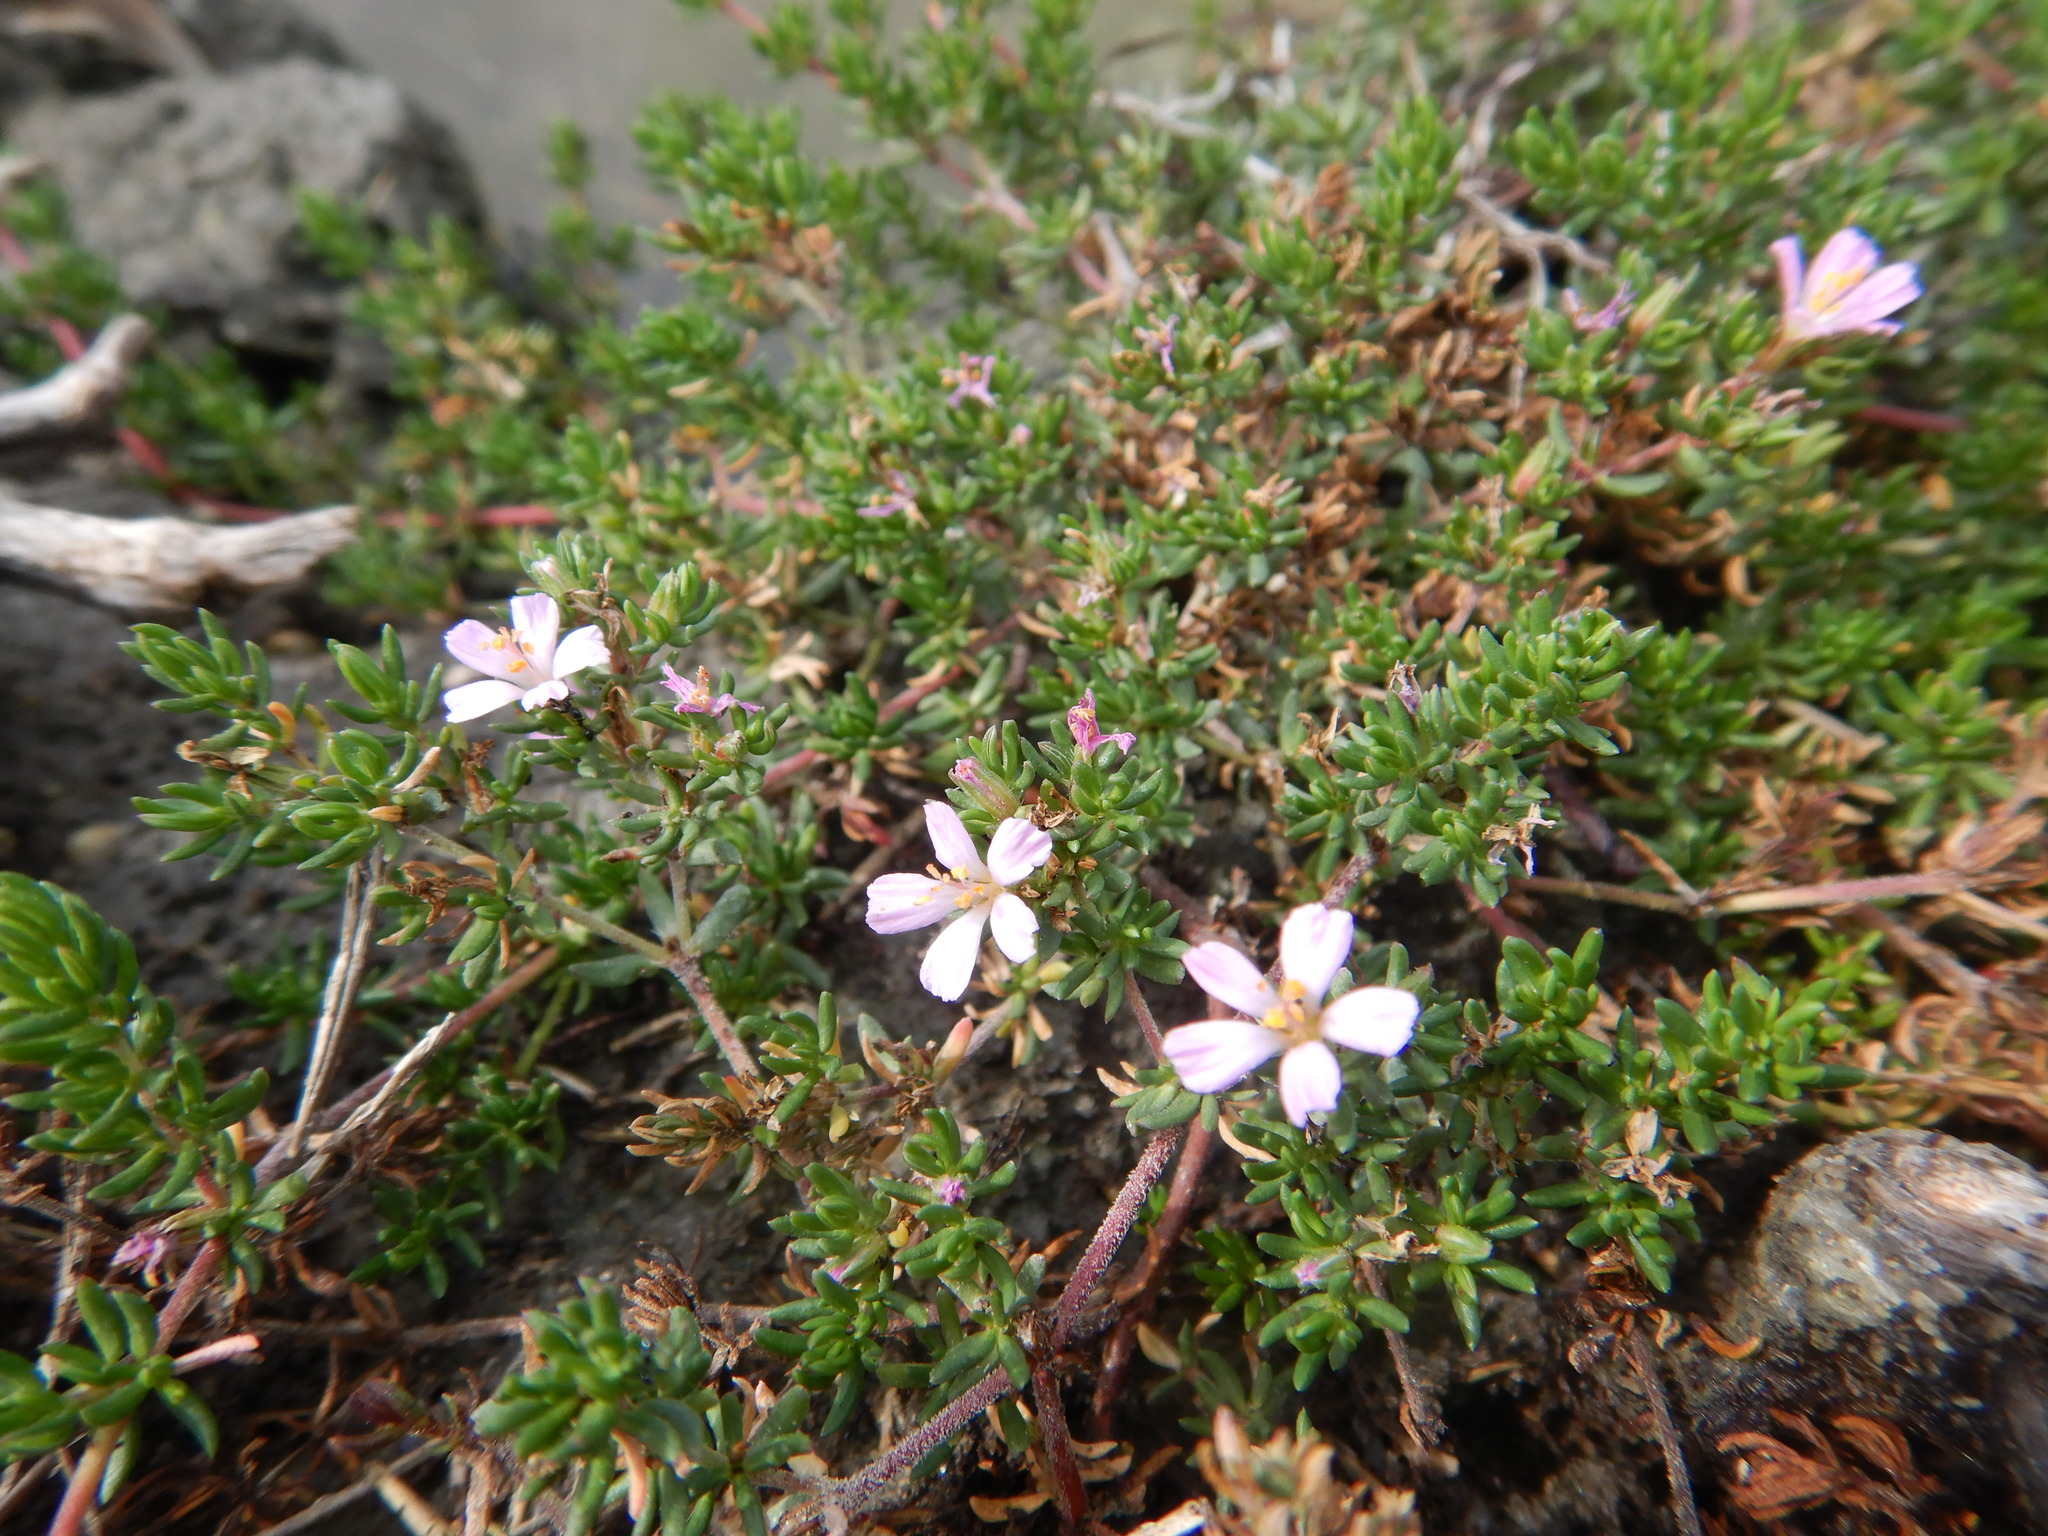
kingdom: Plantae
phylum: Tracheophyta
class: Magnoliopsida
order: Caryophyllales
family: Frankeniaceae
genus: Frankenia
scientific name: Frankenia laevis
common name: Sea-heath
